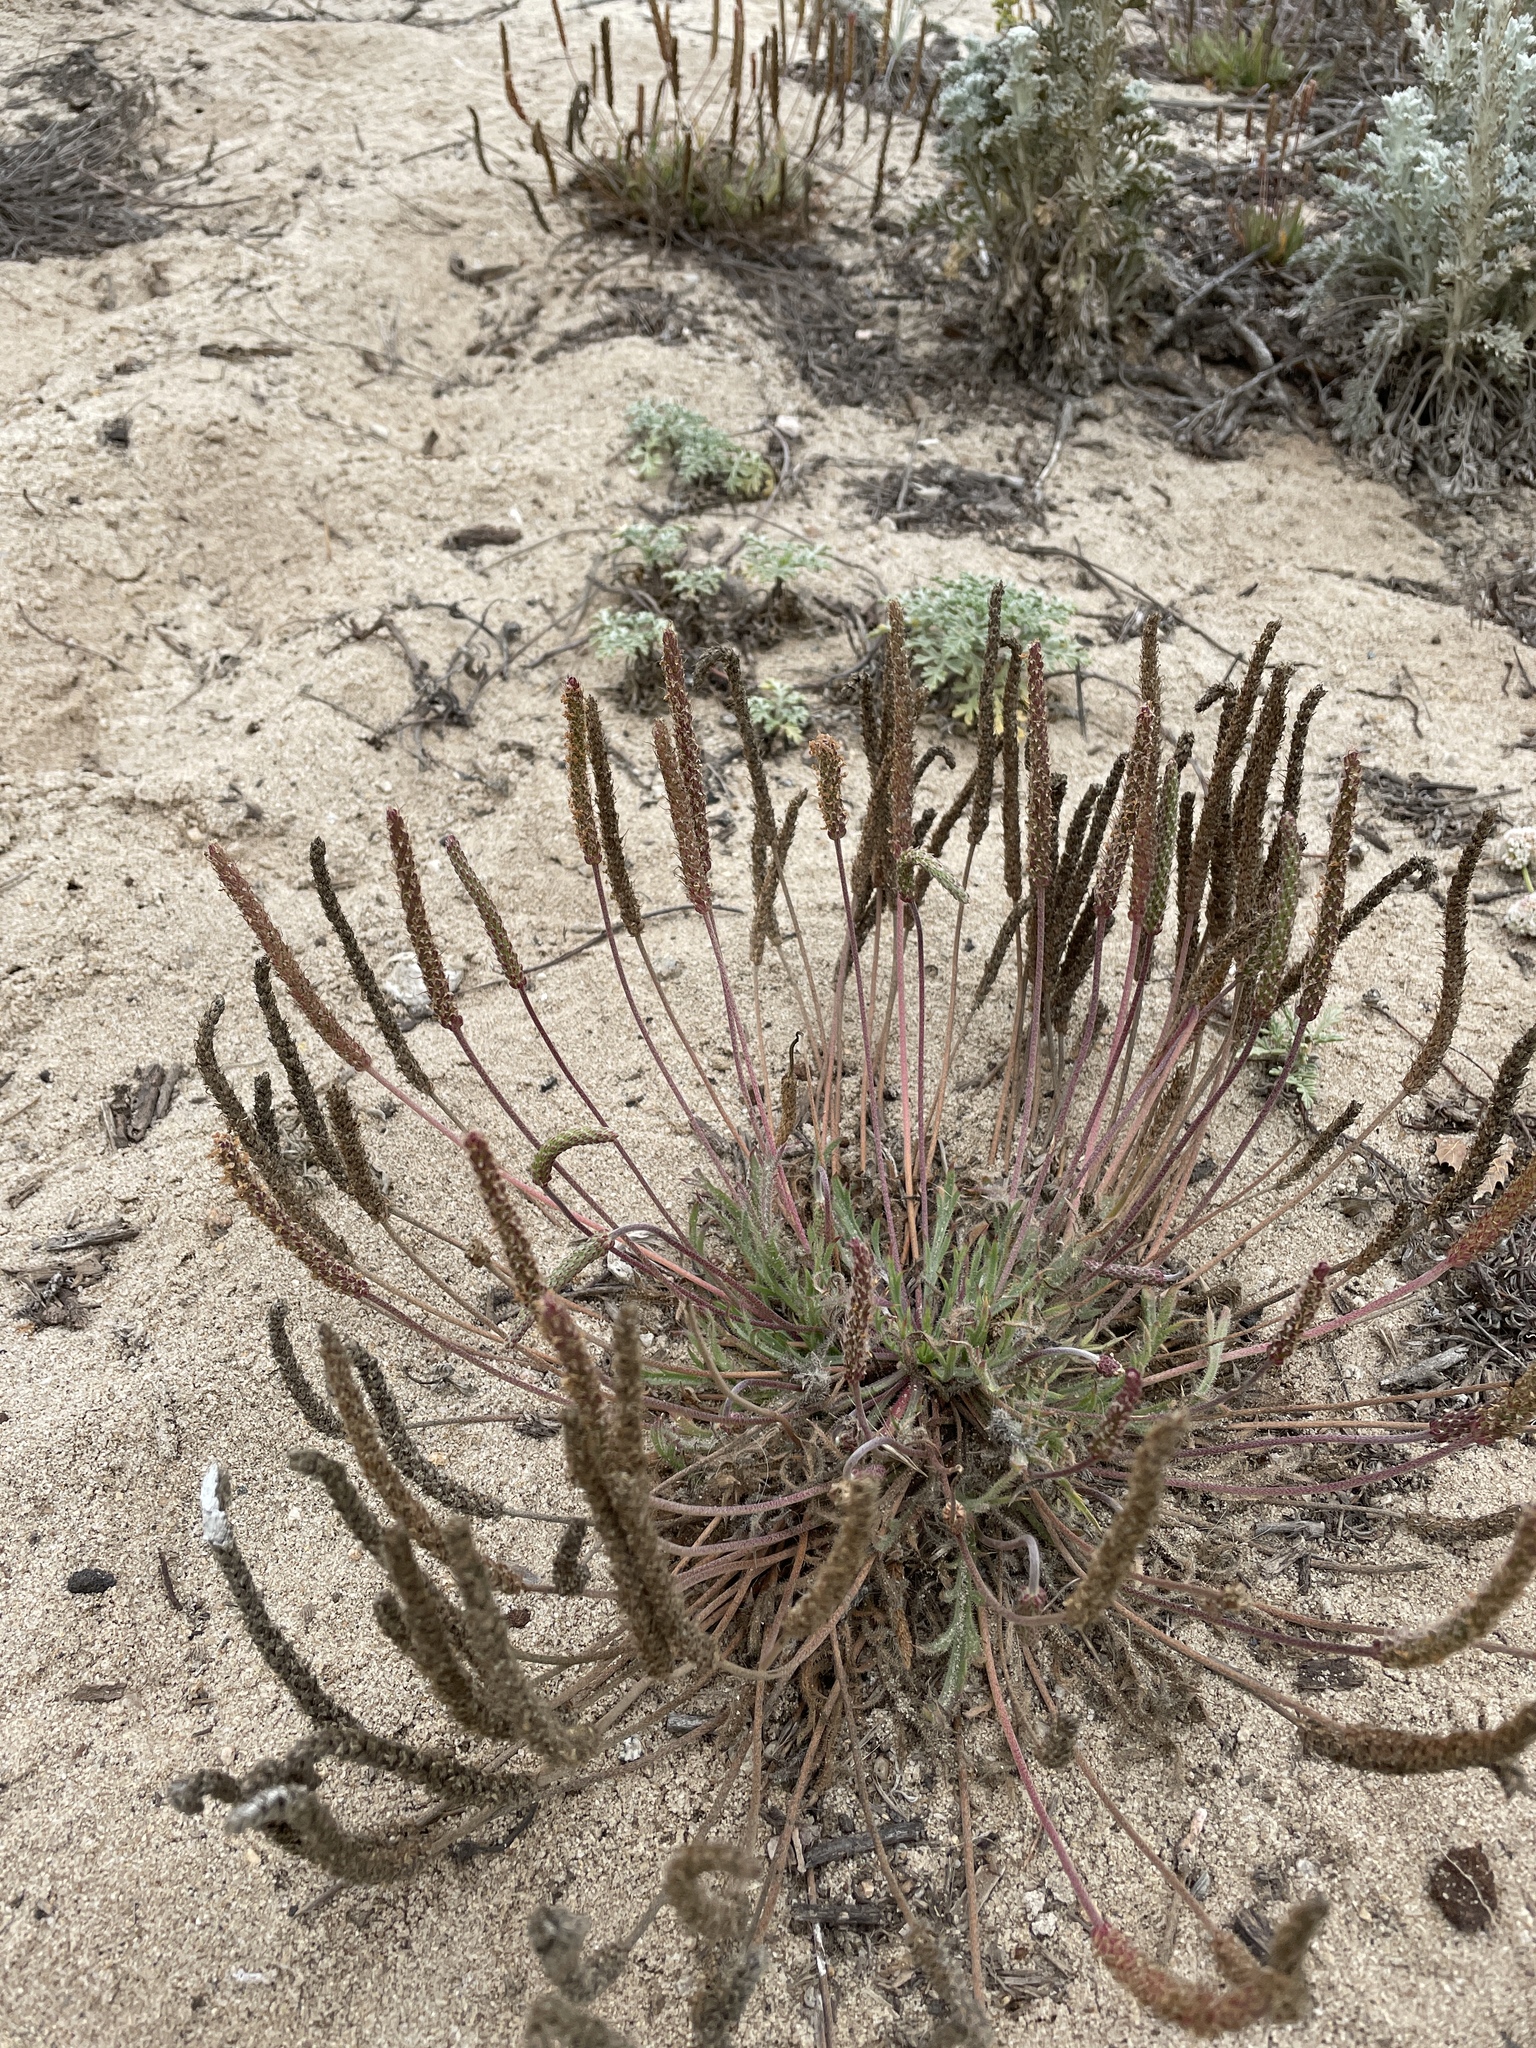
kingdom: Plantae
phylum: Tracheophyta
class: Magnoliopsida
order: Lamiales
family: Plantaginaceae
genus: Plantago
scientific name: Plantago coronopus
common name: Buck's-horn plantain
